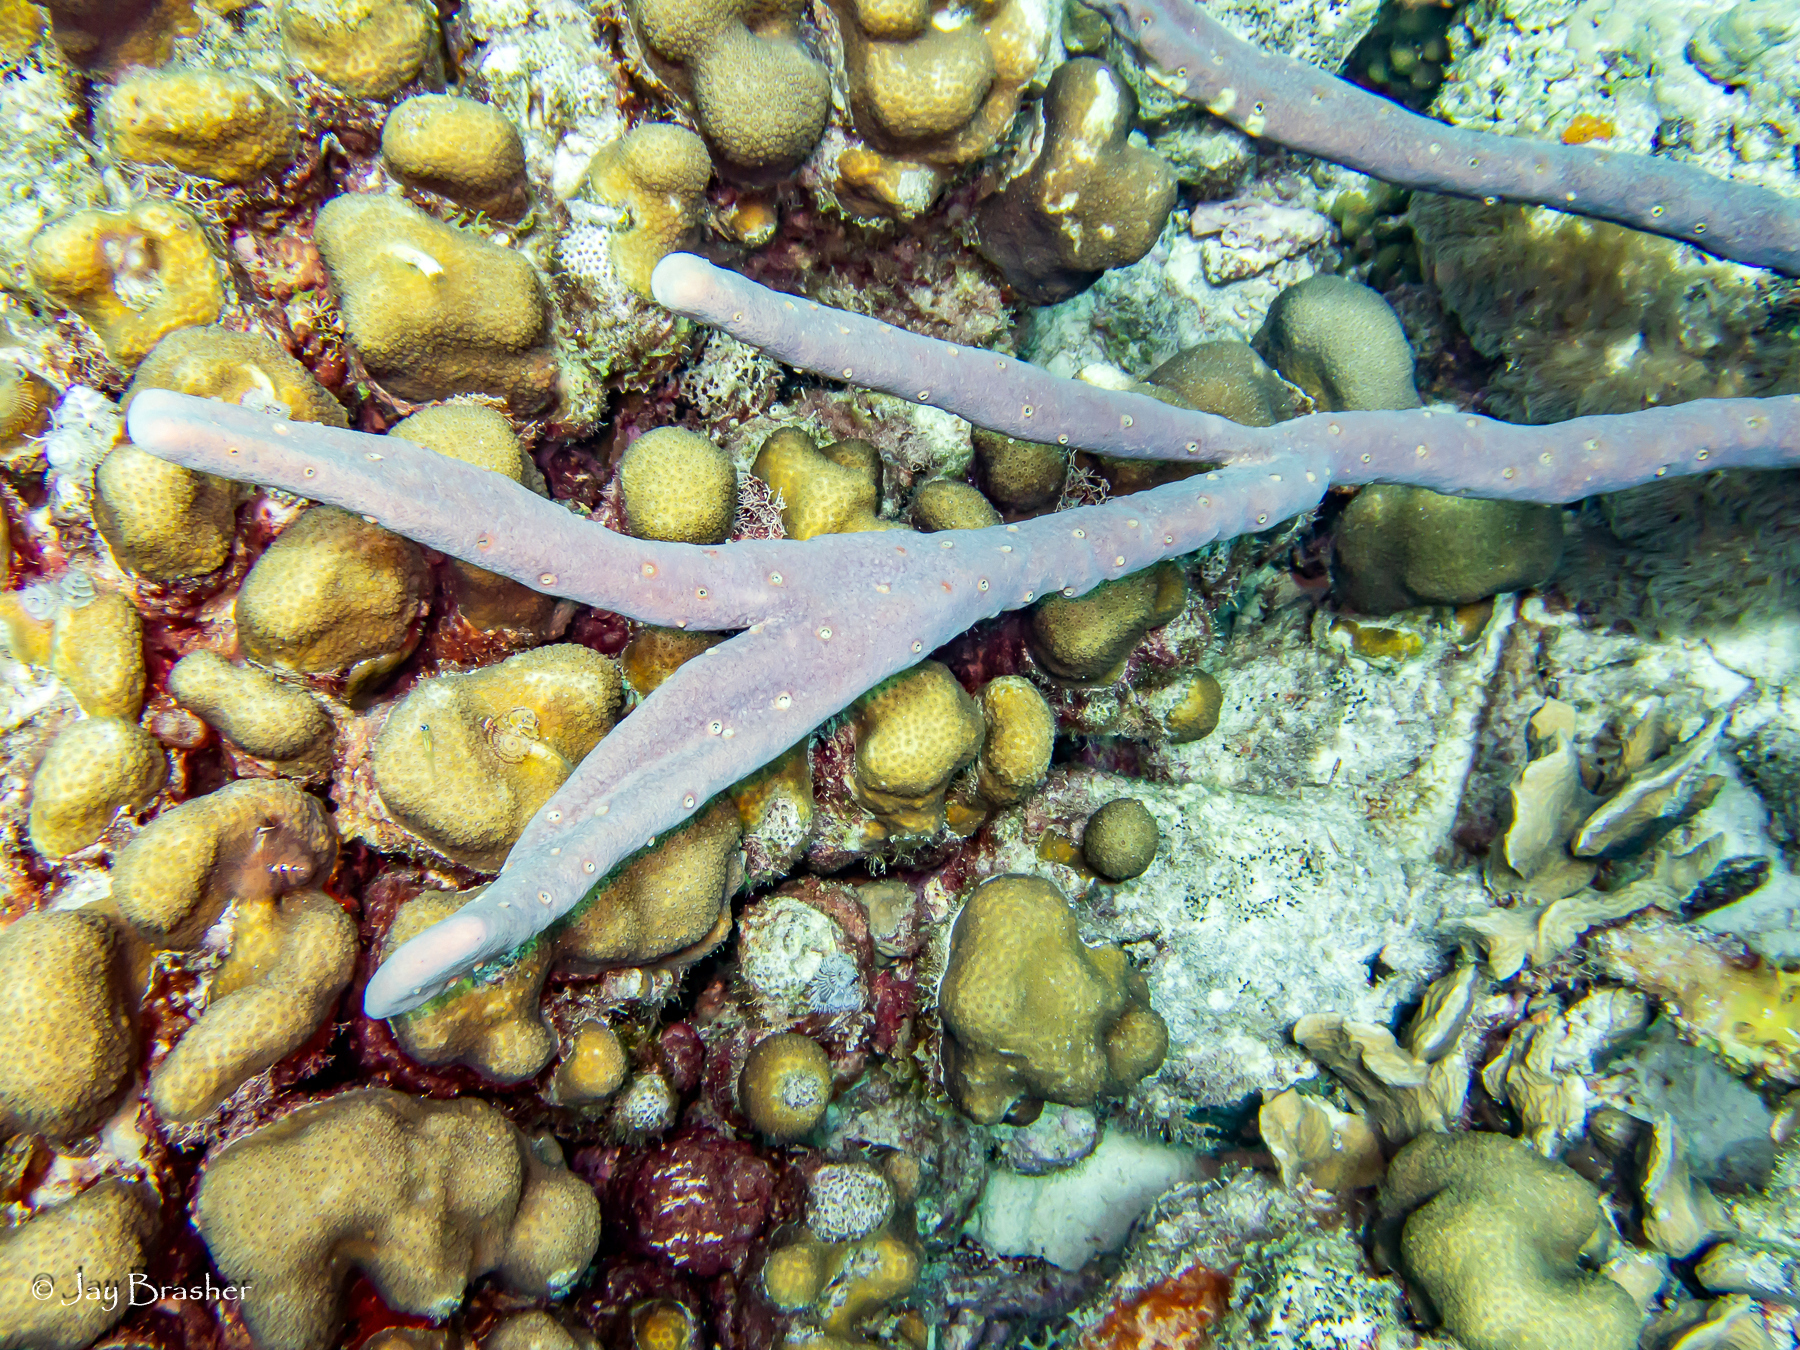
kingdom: Animalia
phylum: Porifera
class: Demospongiae
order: Verongiida
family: Aplysinidae
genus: Aplysina
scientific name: Aplysina cauliformis
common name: Branching candle sponge
